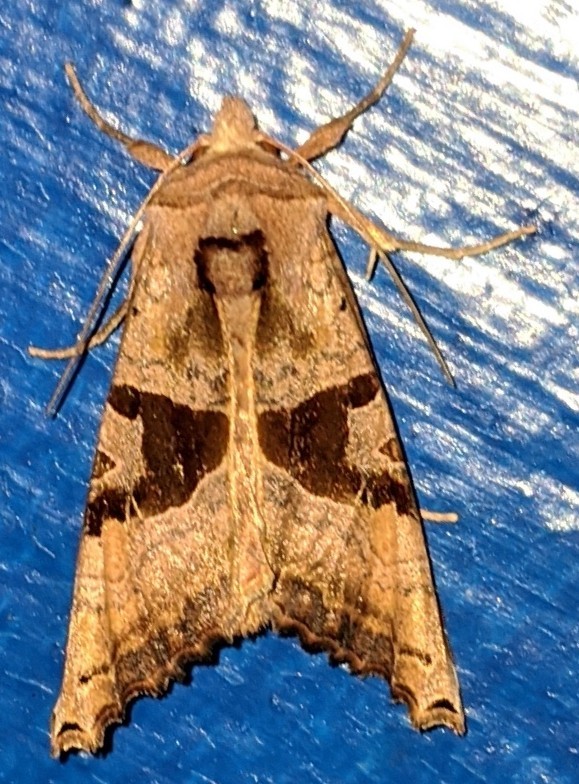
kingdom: Animalia
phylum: Arthropoda
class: Insecta
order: Lepidoptera
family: Noctuidae
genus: Phlogophora
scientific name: Phlogophora periculosa
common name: Brown angle shades
